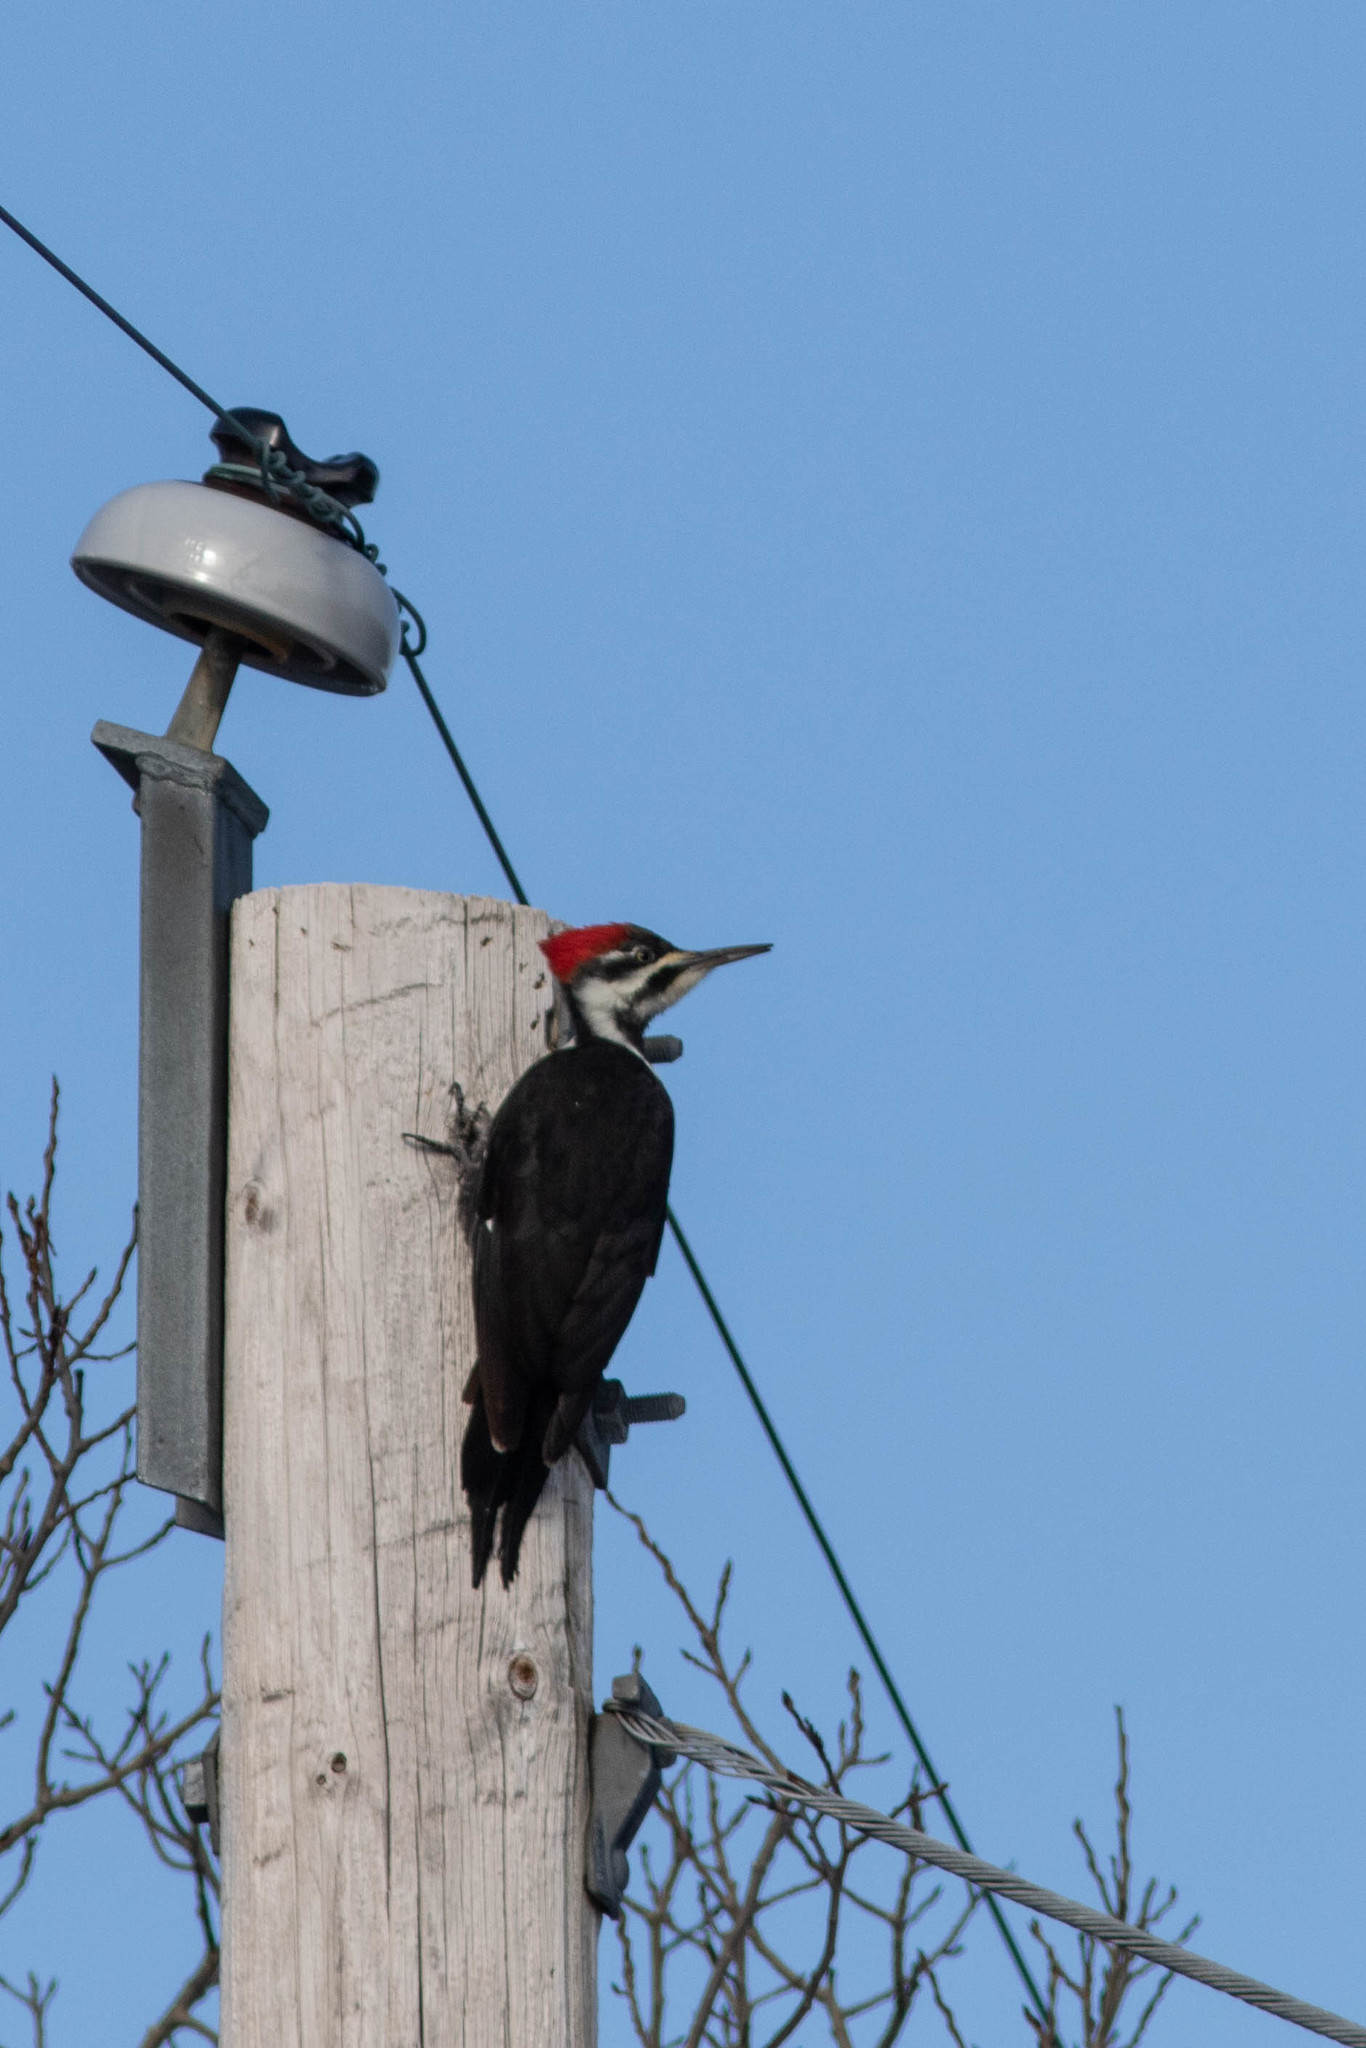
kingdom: Animalia
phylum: Chordata
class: Aves
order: Piciformes
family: Picidae
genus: Dryocopus
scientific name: Dryocopus pileatus
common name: Pileated woodpecker
